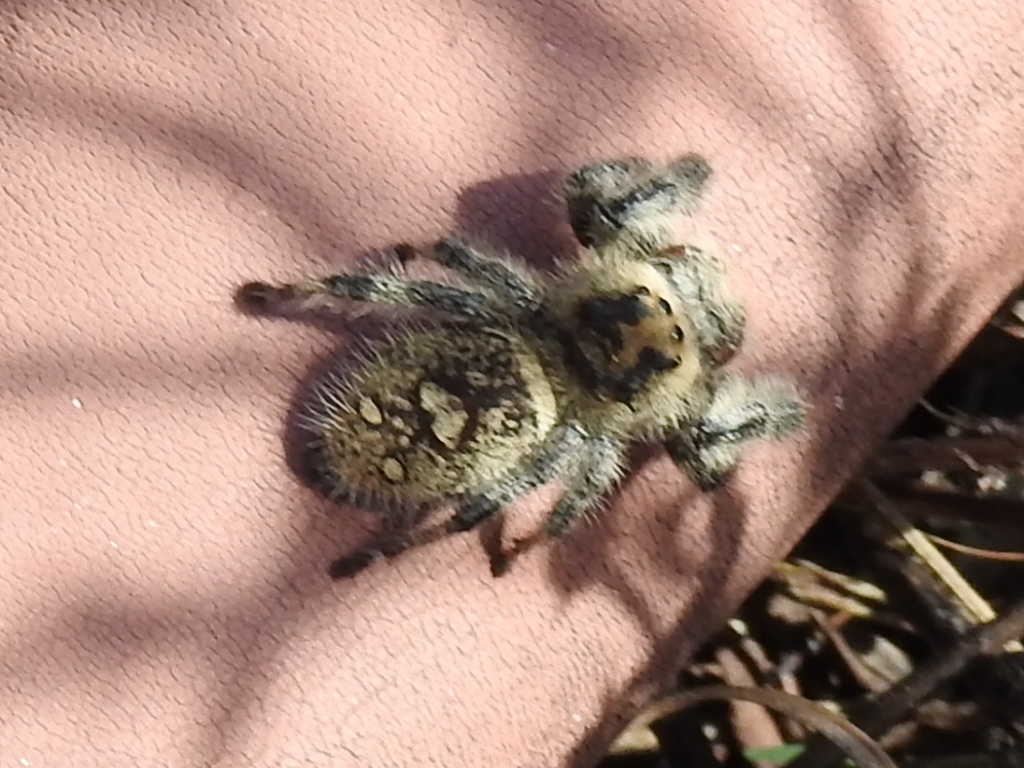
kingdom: Animalia
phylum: Arthropoda
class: Arachnida
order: Araneae
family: Salticidae
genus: Phidippus
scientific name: Phidippus regius
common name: Regal jumper
